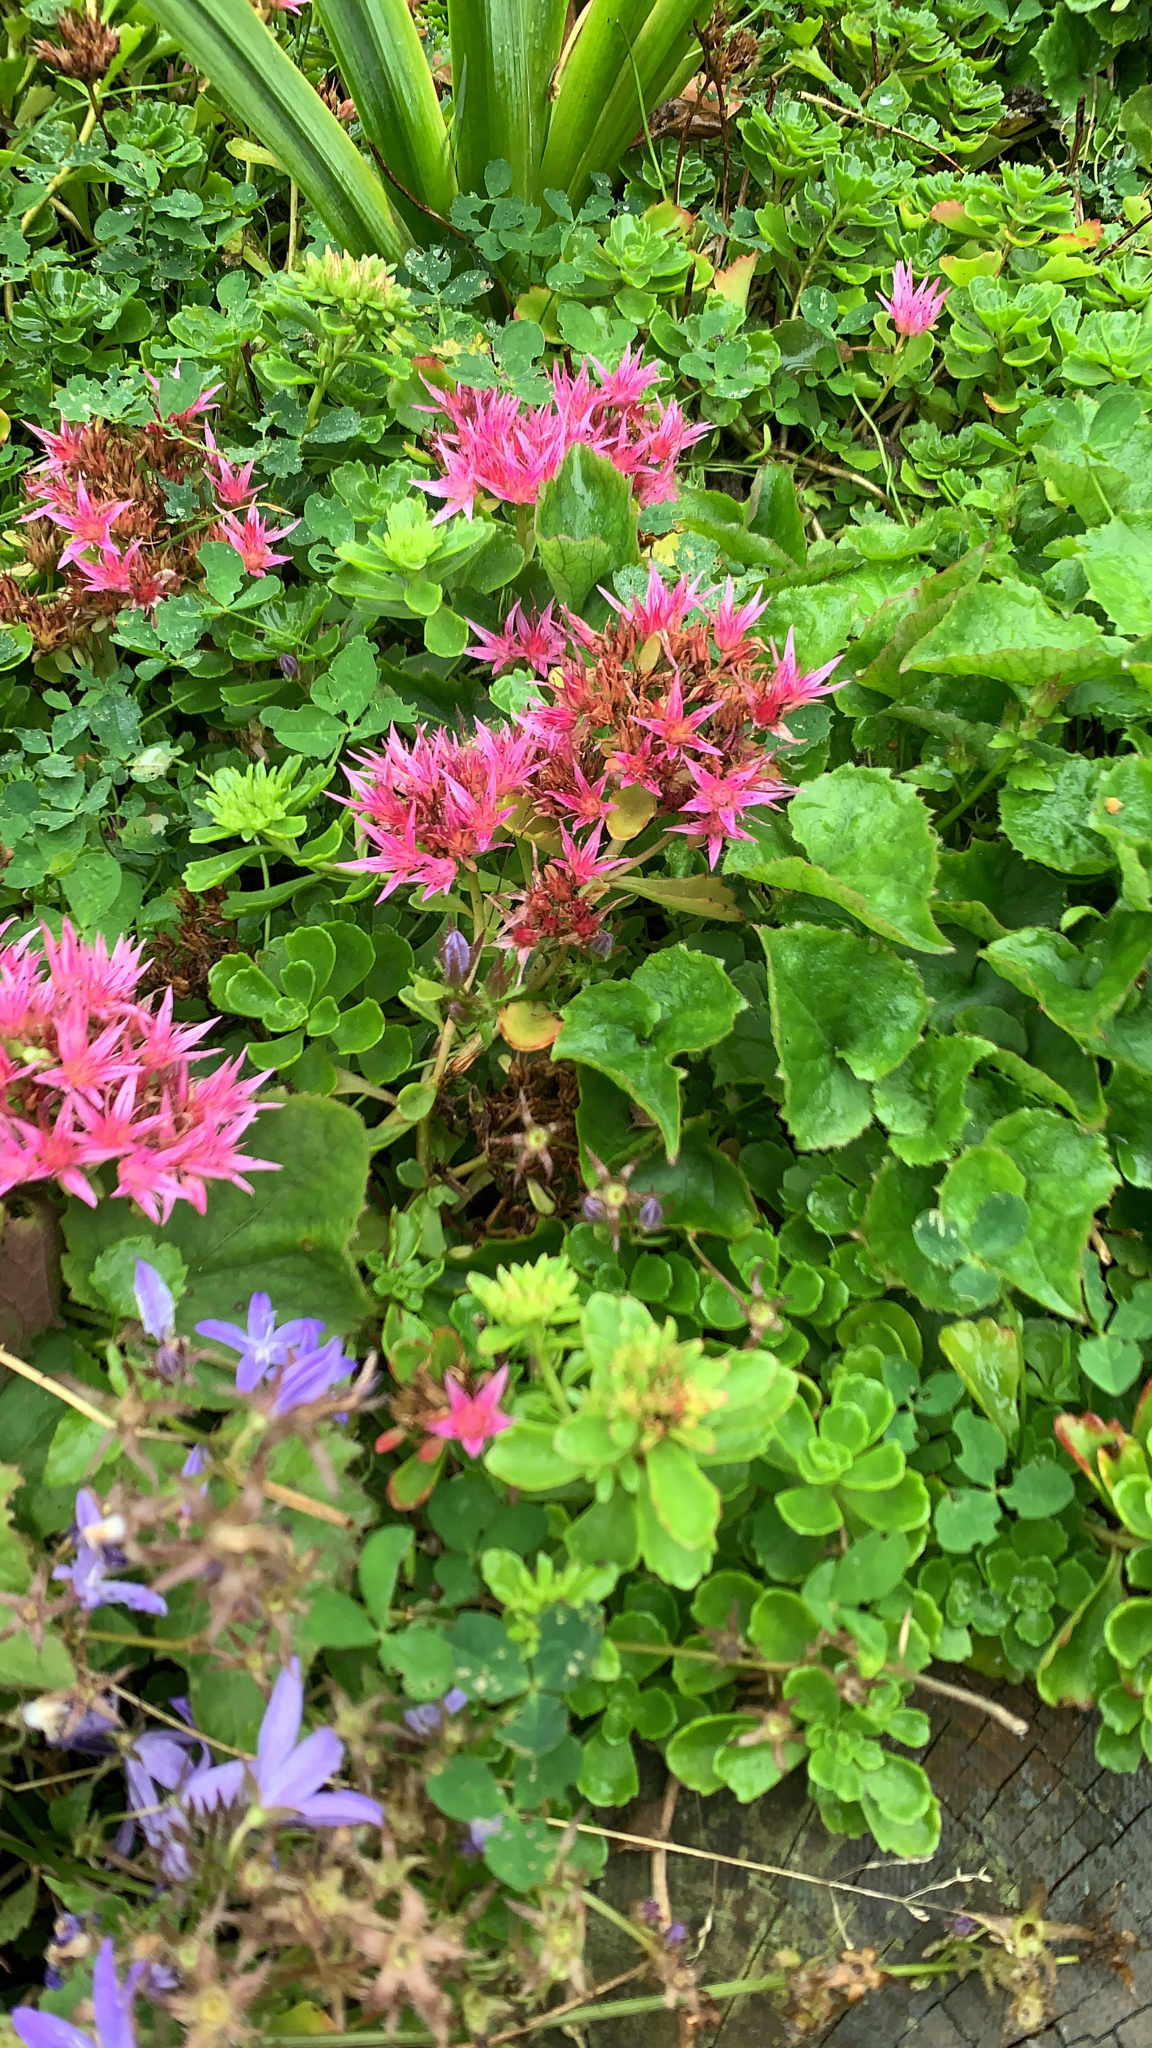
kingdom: Plantae
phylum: Tracheophyta
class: Magnoliopsida
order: Saxifragales
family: Crassulaceae
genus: Phedimus
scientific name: Phedimus spurius
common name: Caucasian stonecrop
